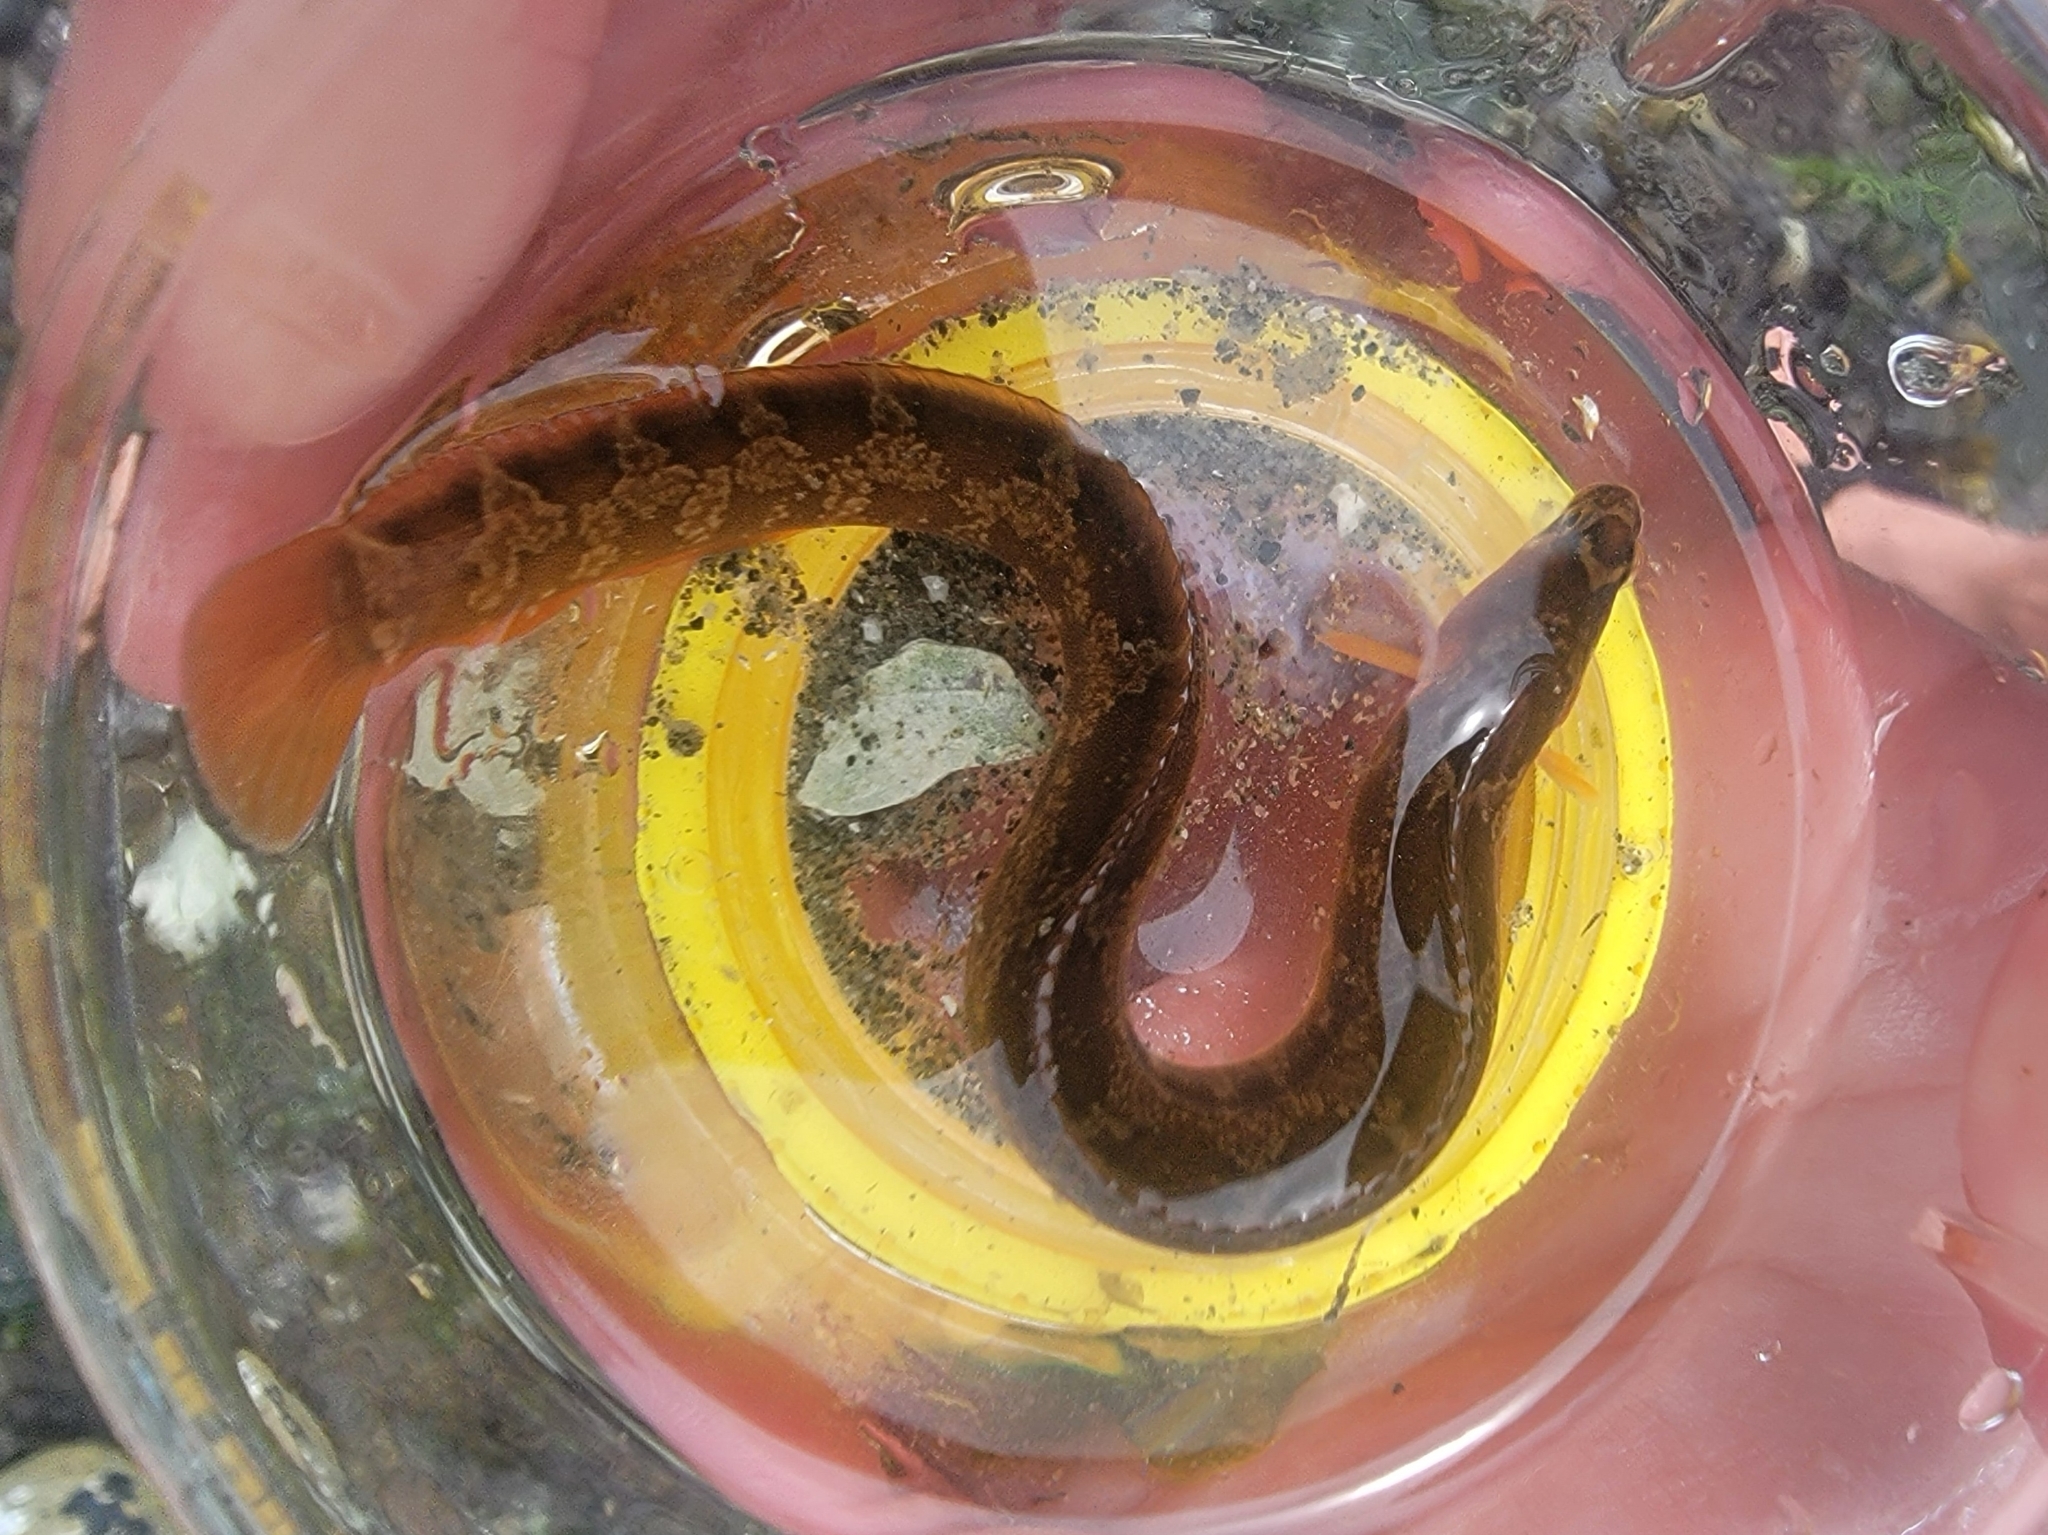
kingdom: Animalia
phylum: Chordata
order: Perciformes
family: Pholidae
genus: Pholis
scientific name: Pholis ornata
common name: Saddleback gunnel
